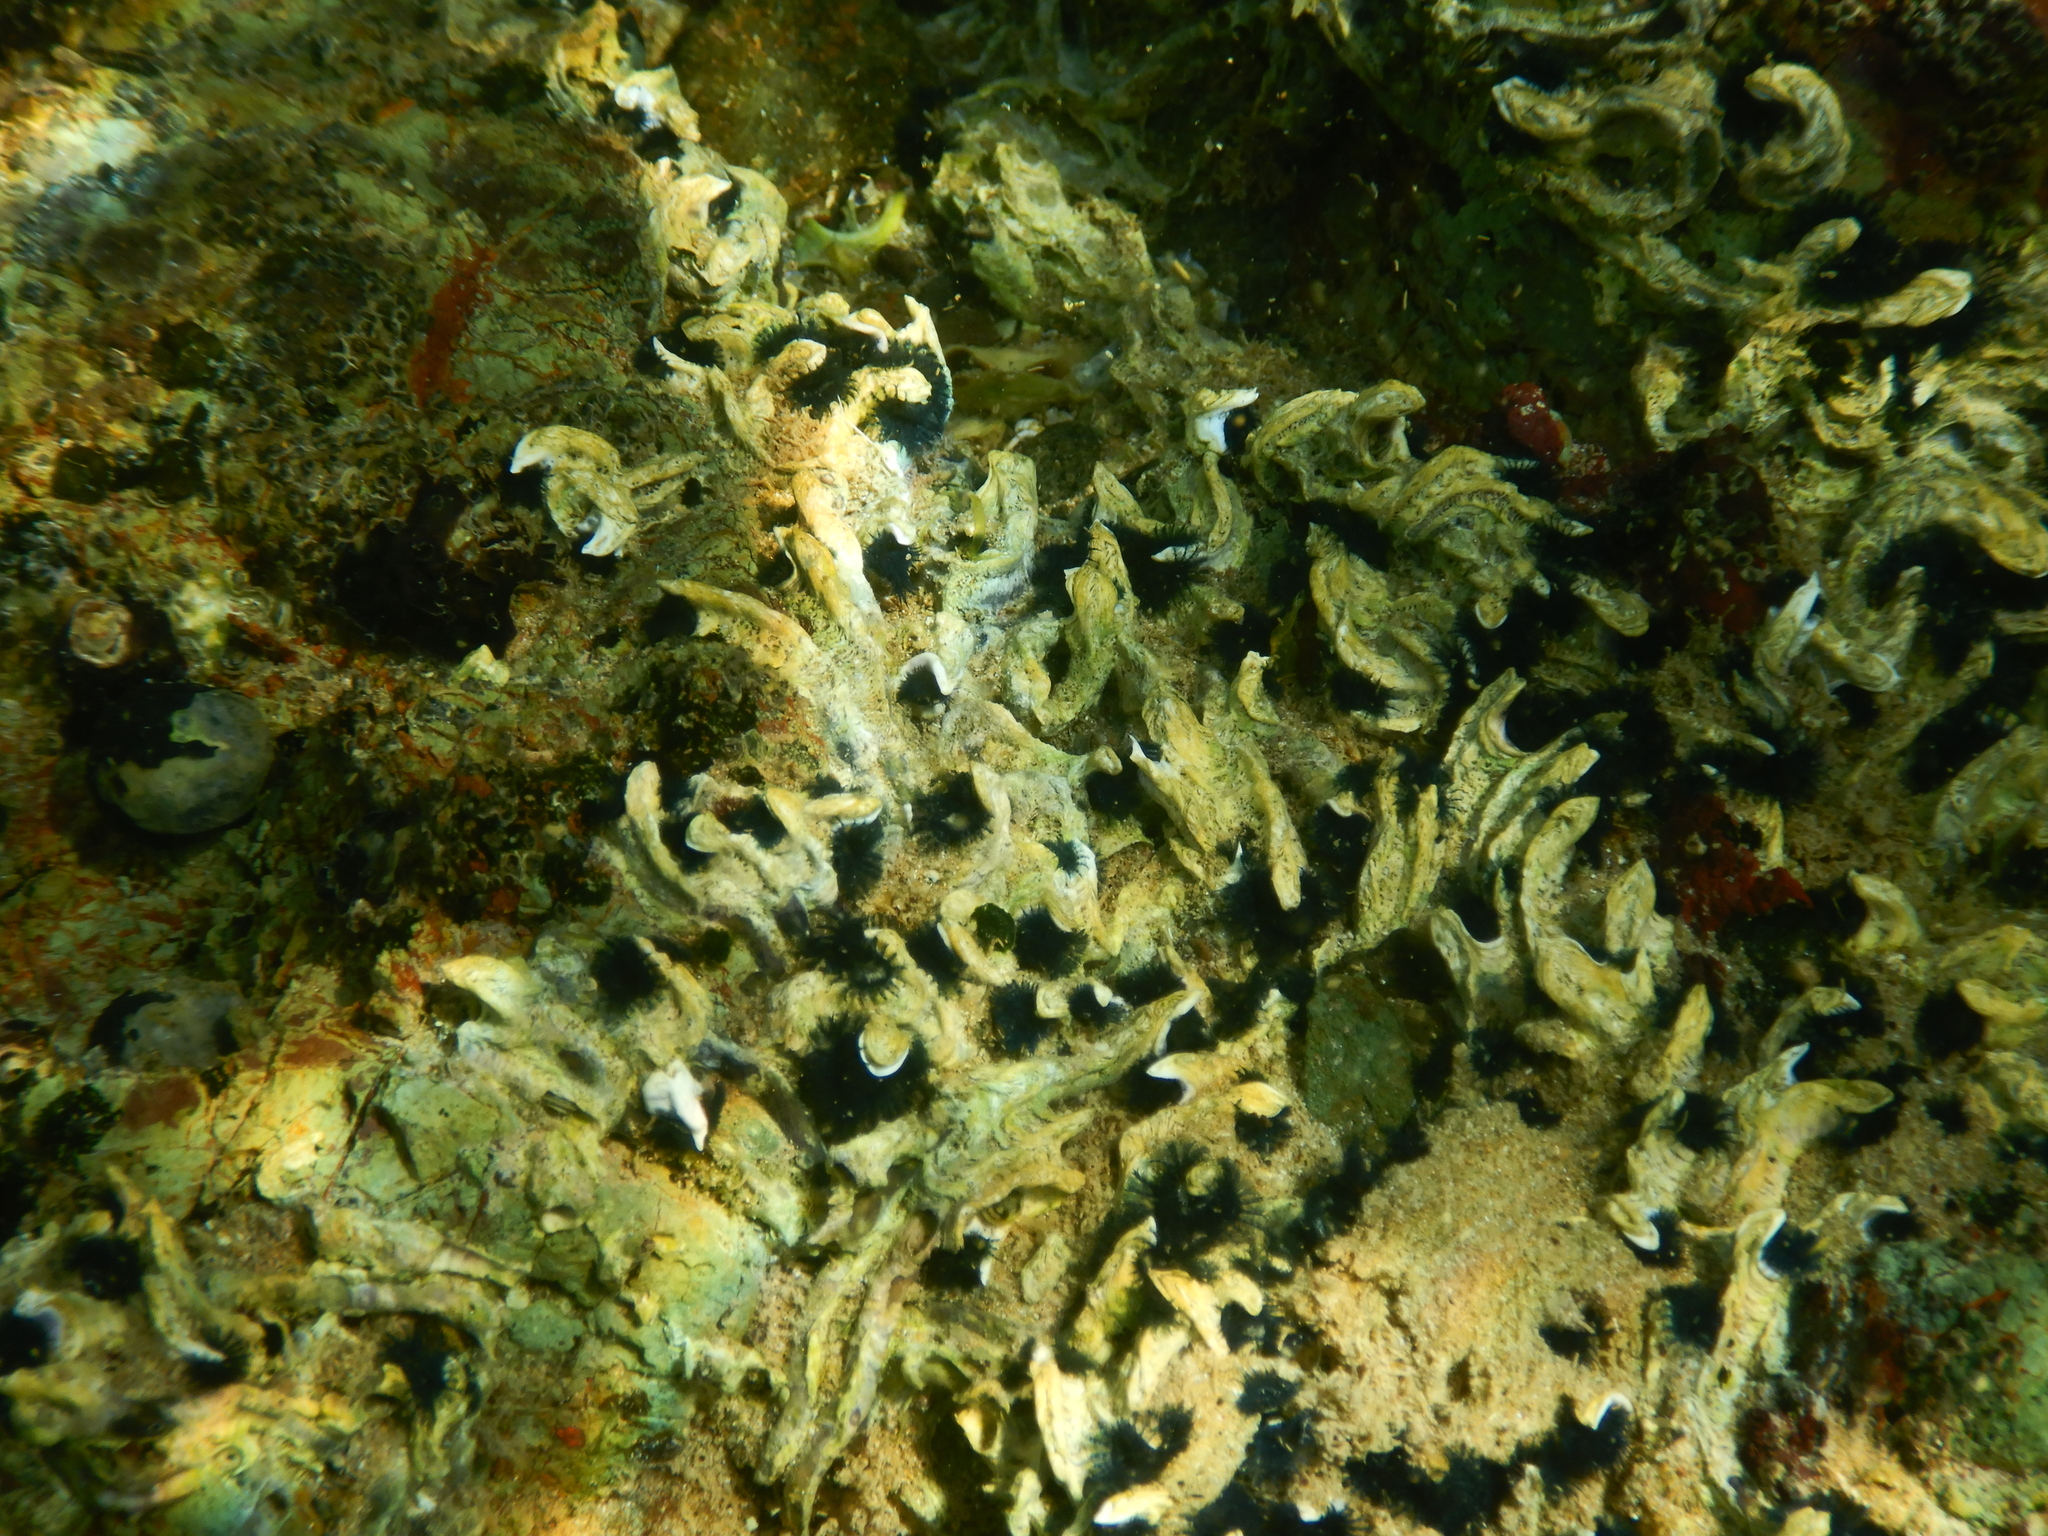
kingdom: Animalia
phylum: Annelida
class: Polychaeta
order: Sabellida
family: Serpulidae
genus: Spirobranchus
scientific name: Spirobranchus cariniferus
